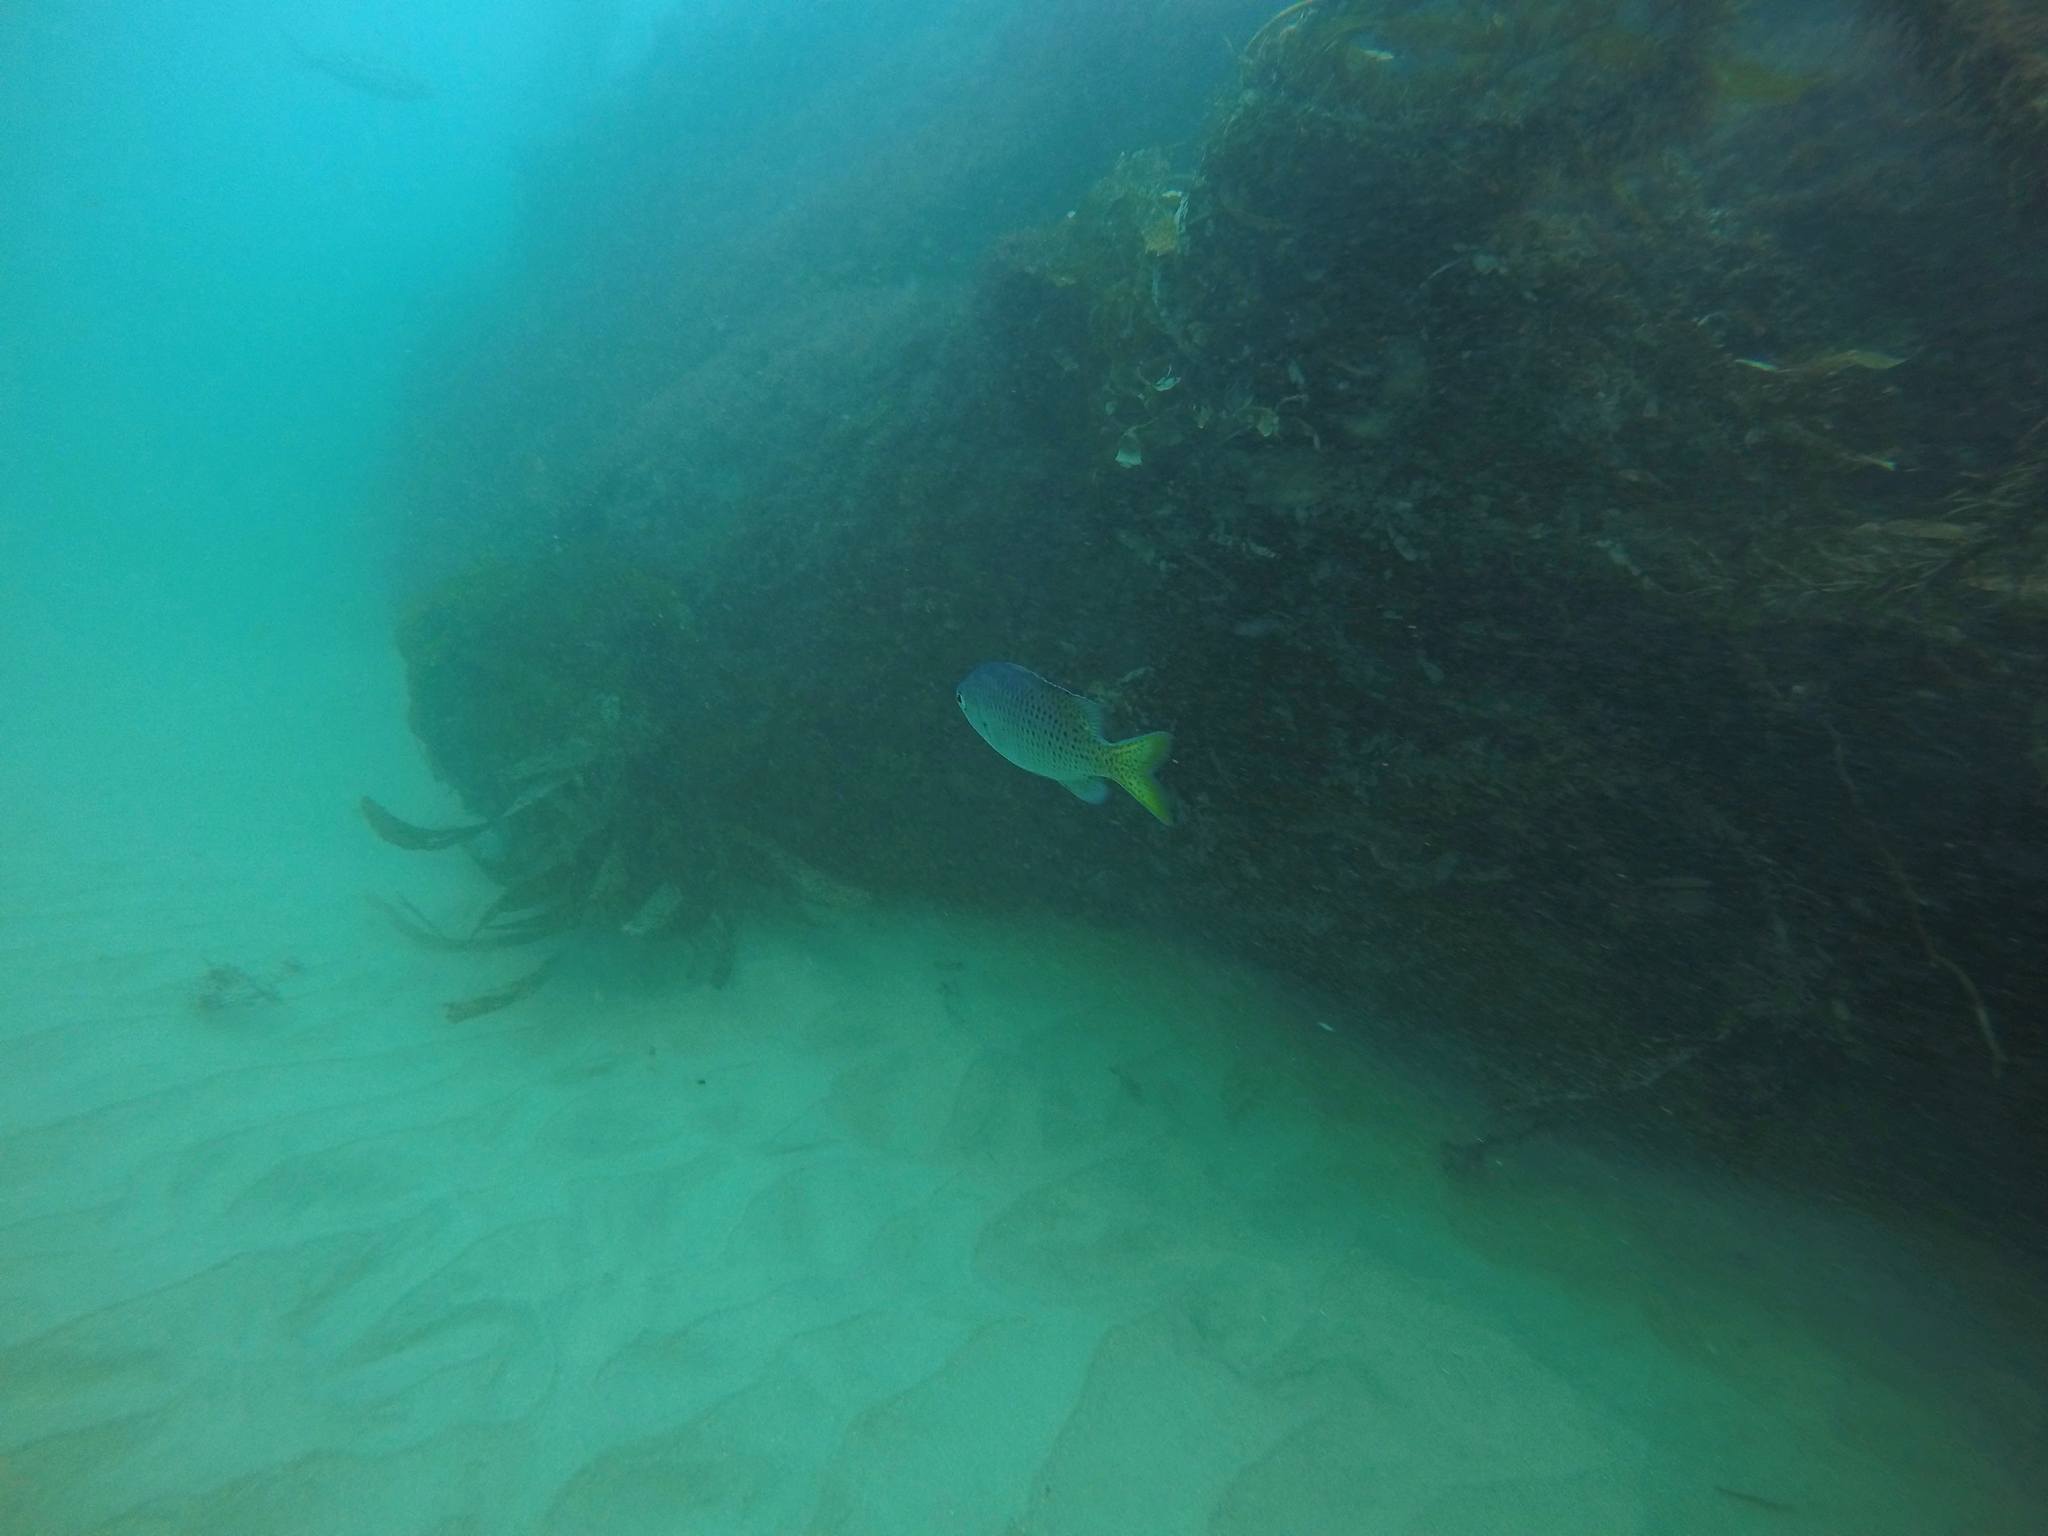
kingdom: Animalia
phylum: Chordata
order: Perciformes
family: Pomacentridae
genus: Chromis
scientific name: Chromis punctipinnis
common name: Blacksmith
